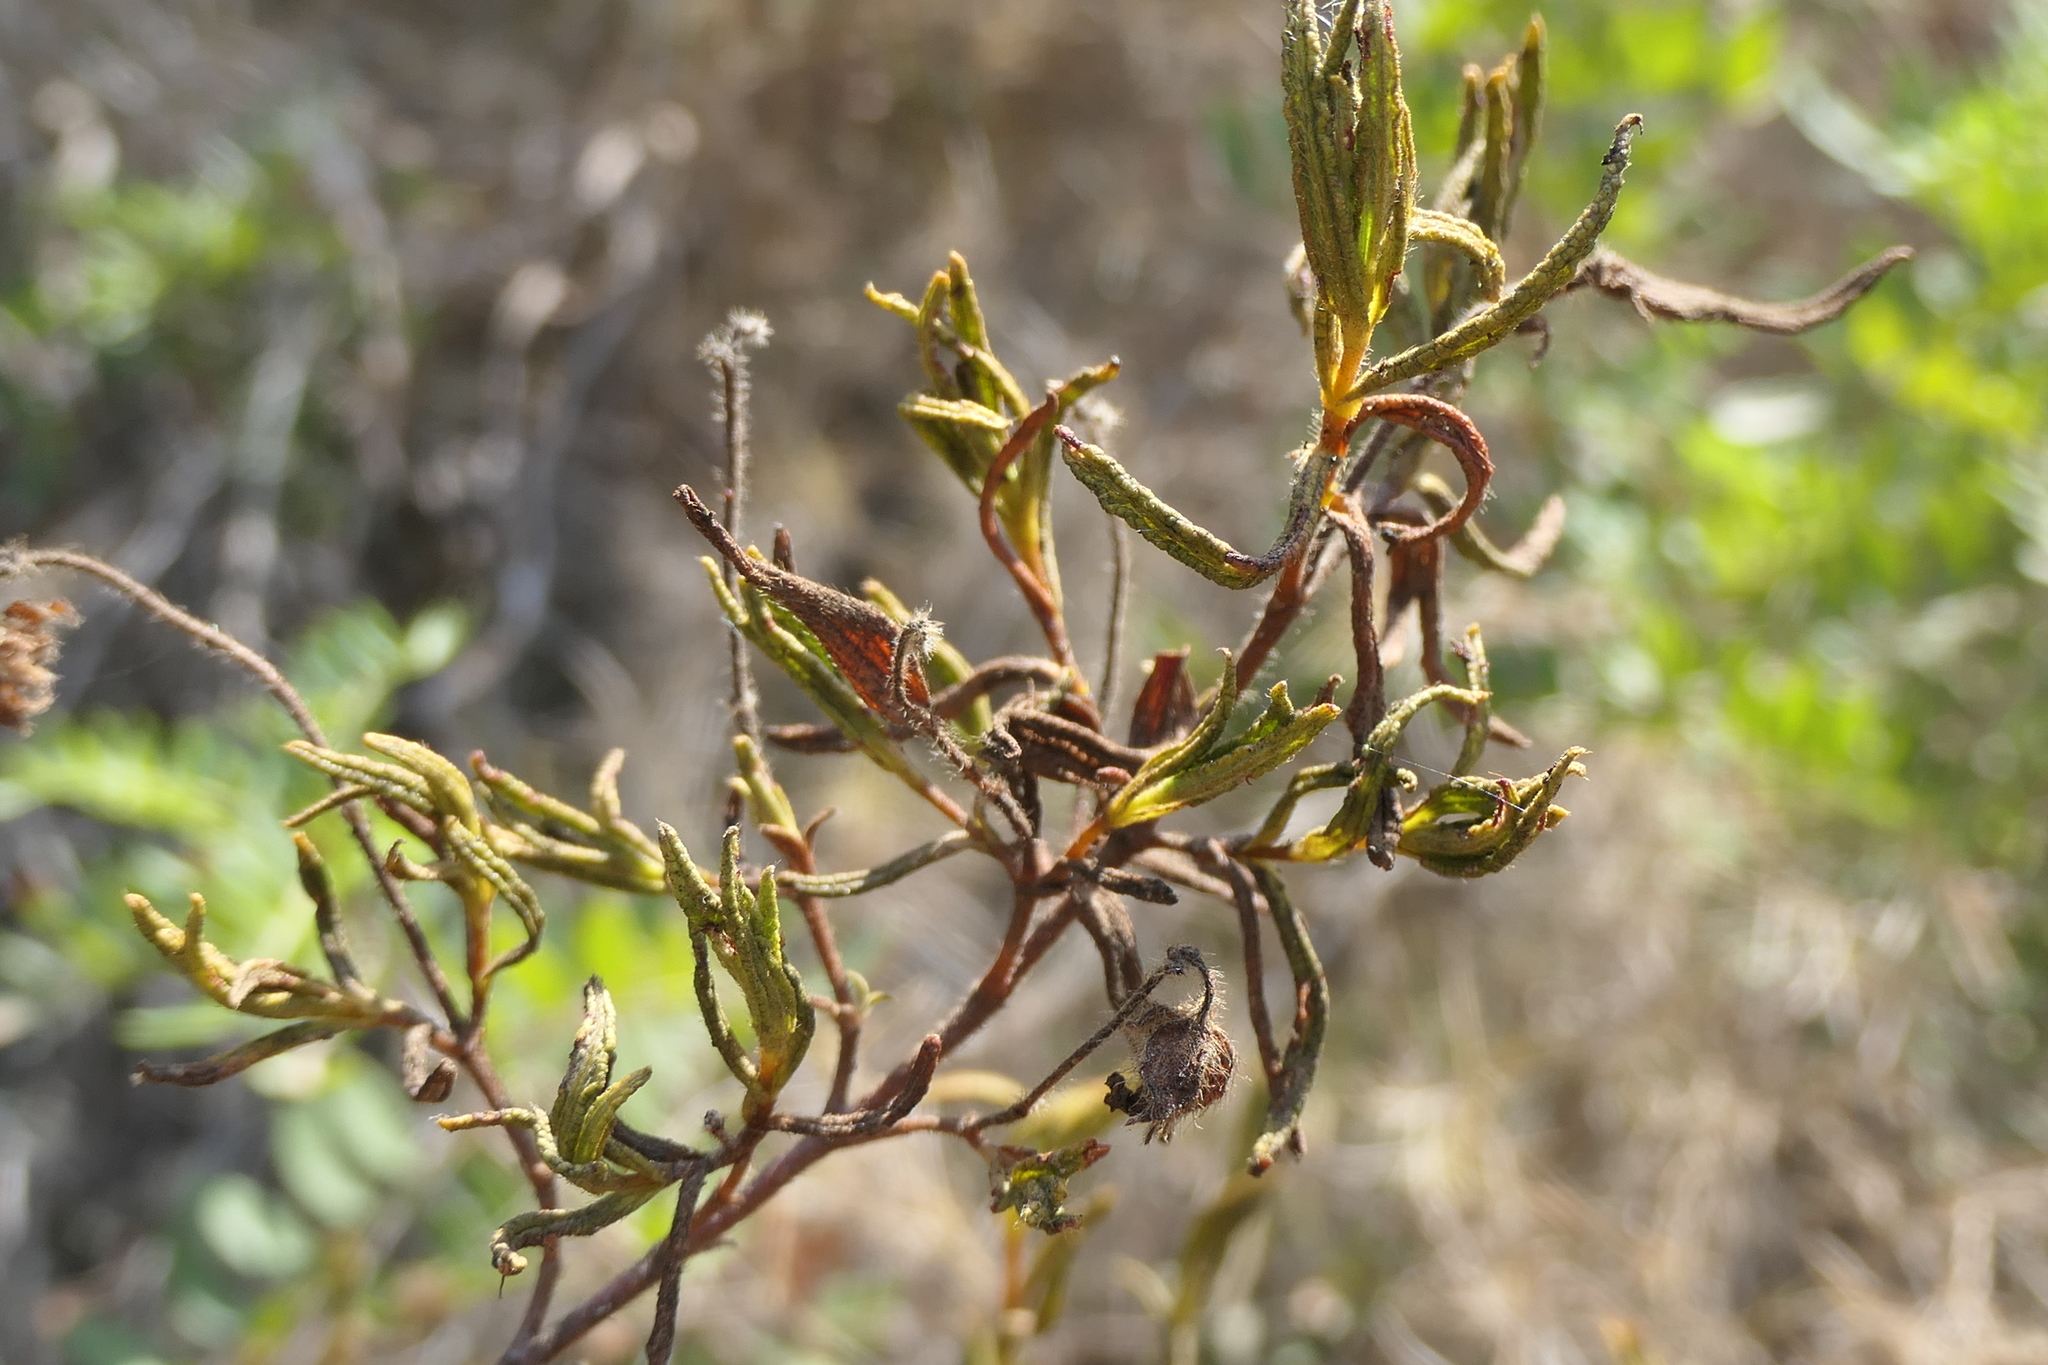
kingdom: Plantae
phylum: Tracheophyta
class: Magnoliopsida
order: Malvales
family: Cistaceae
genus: Cistus
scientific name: Cistus monspeliensis
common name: Montpelier cistus
